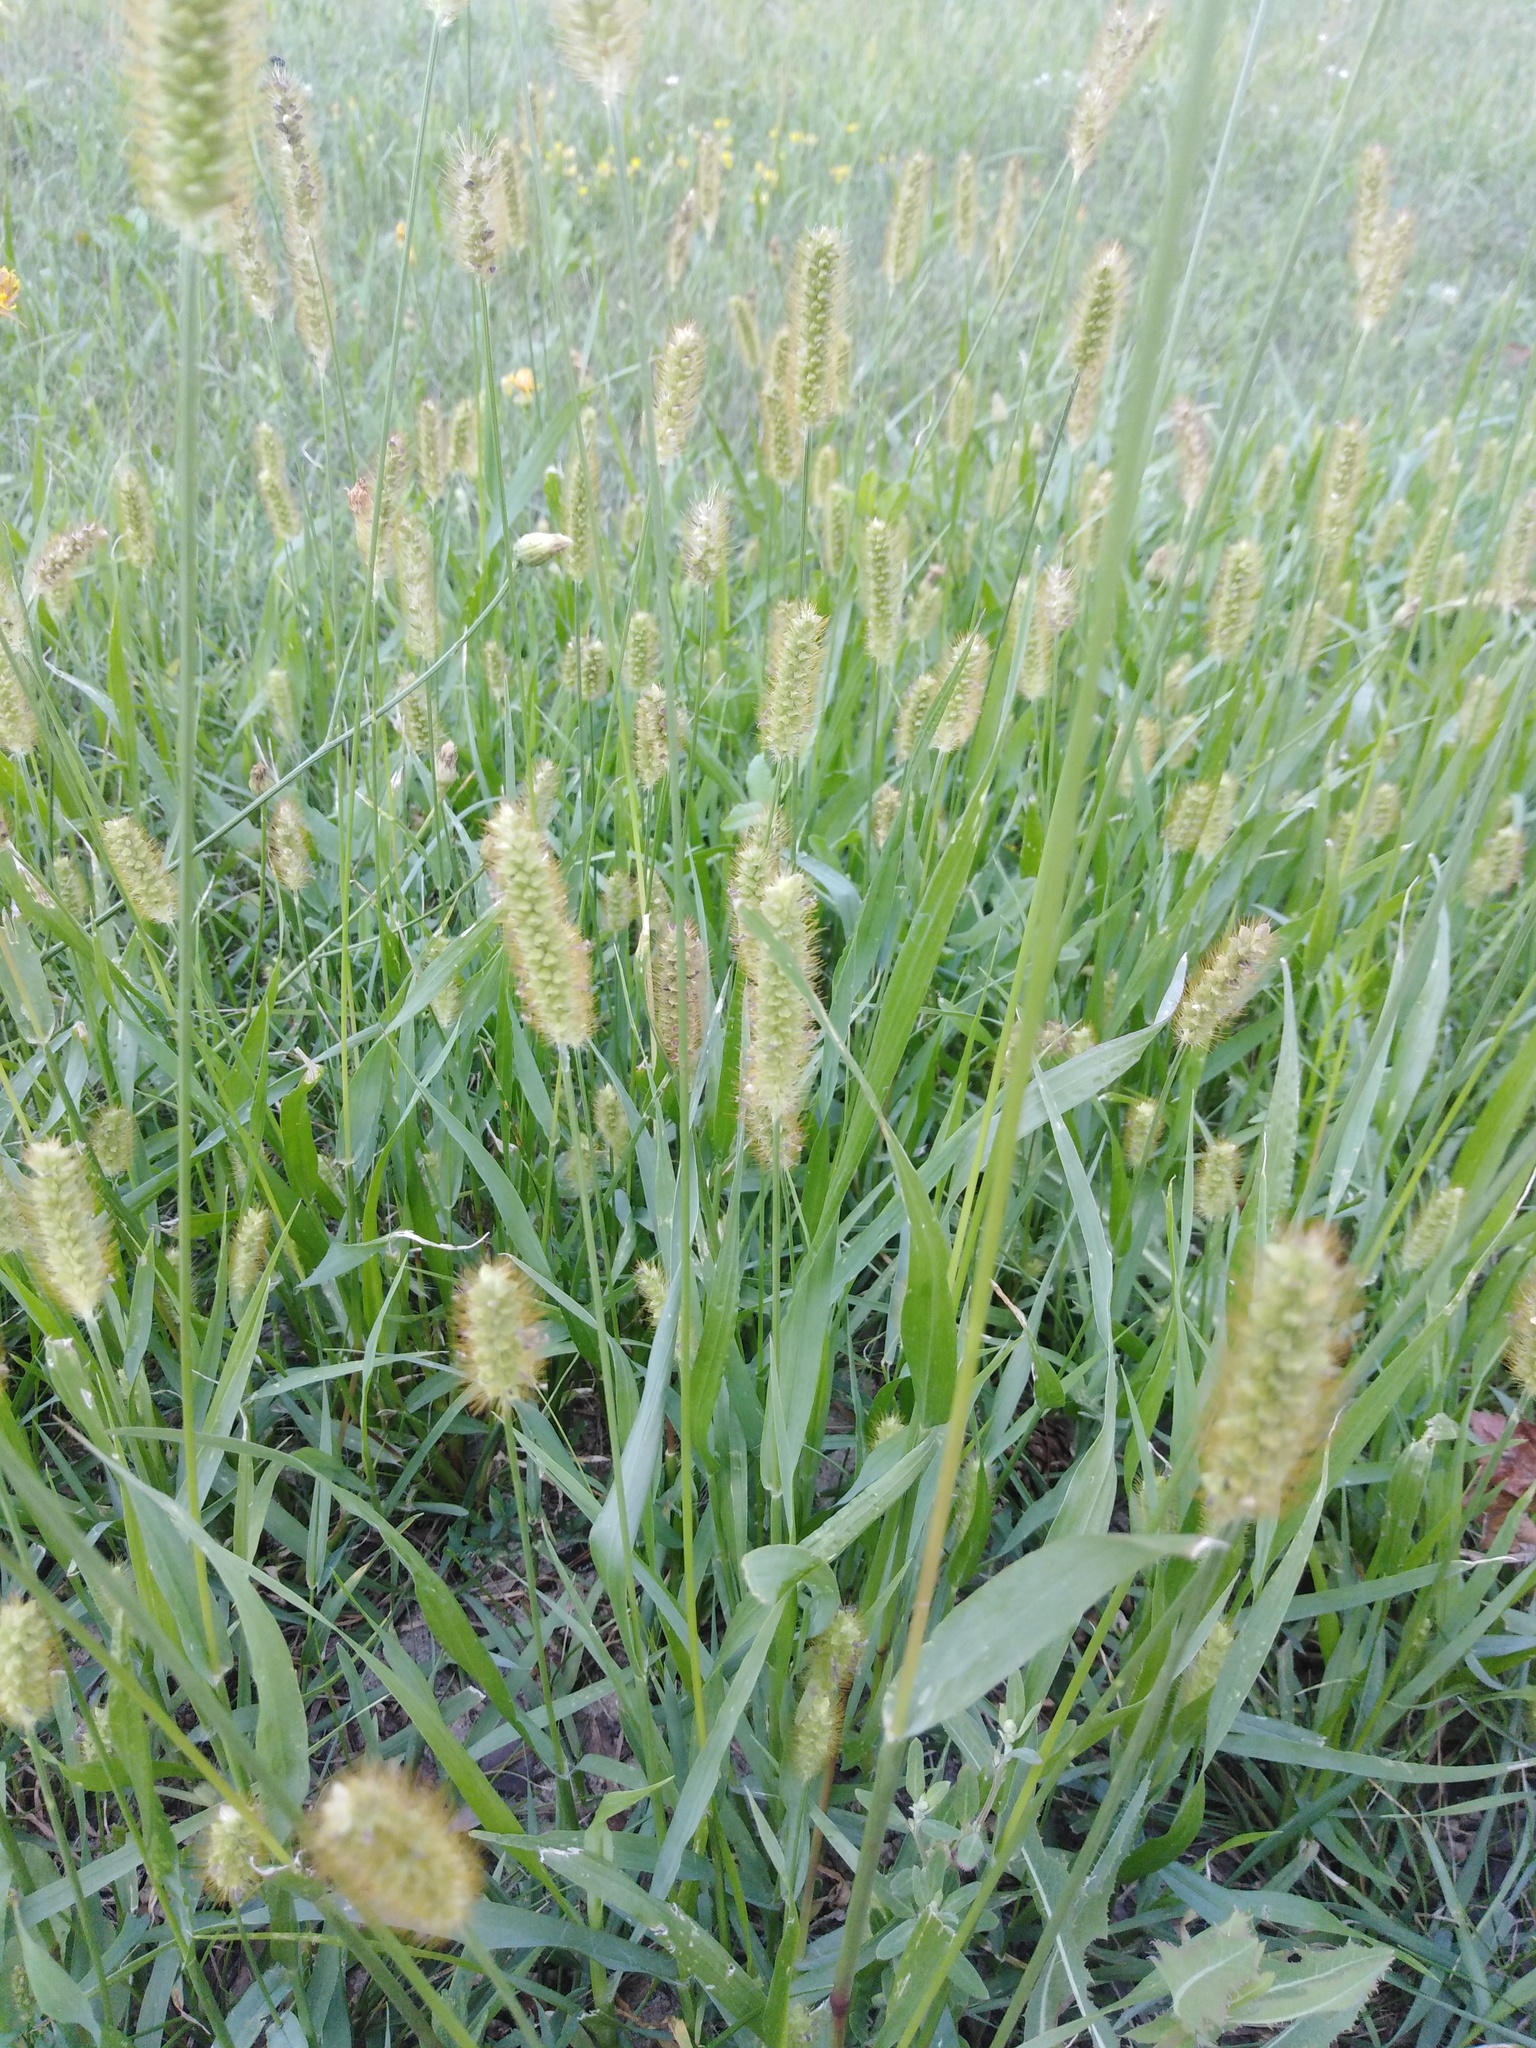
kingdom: Plantae
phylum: Tracheophyta
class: Liliopsida
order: Poales
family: Poaceae
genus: Setaria
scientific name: Setaria pumila
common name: Yellow bristle-grass
